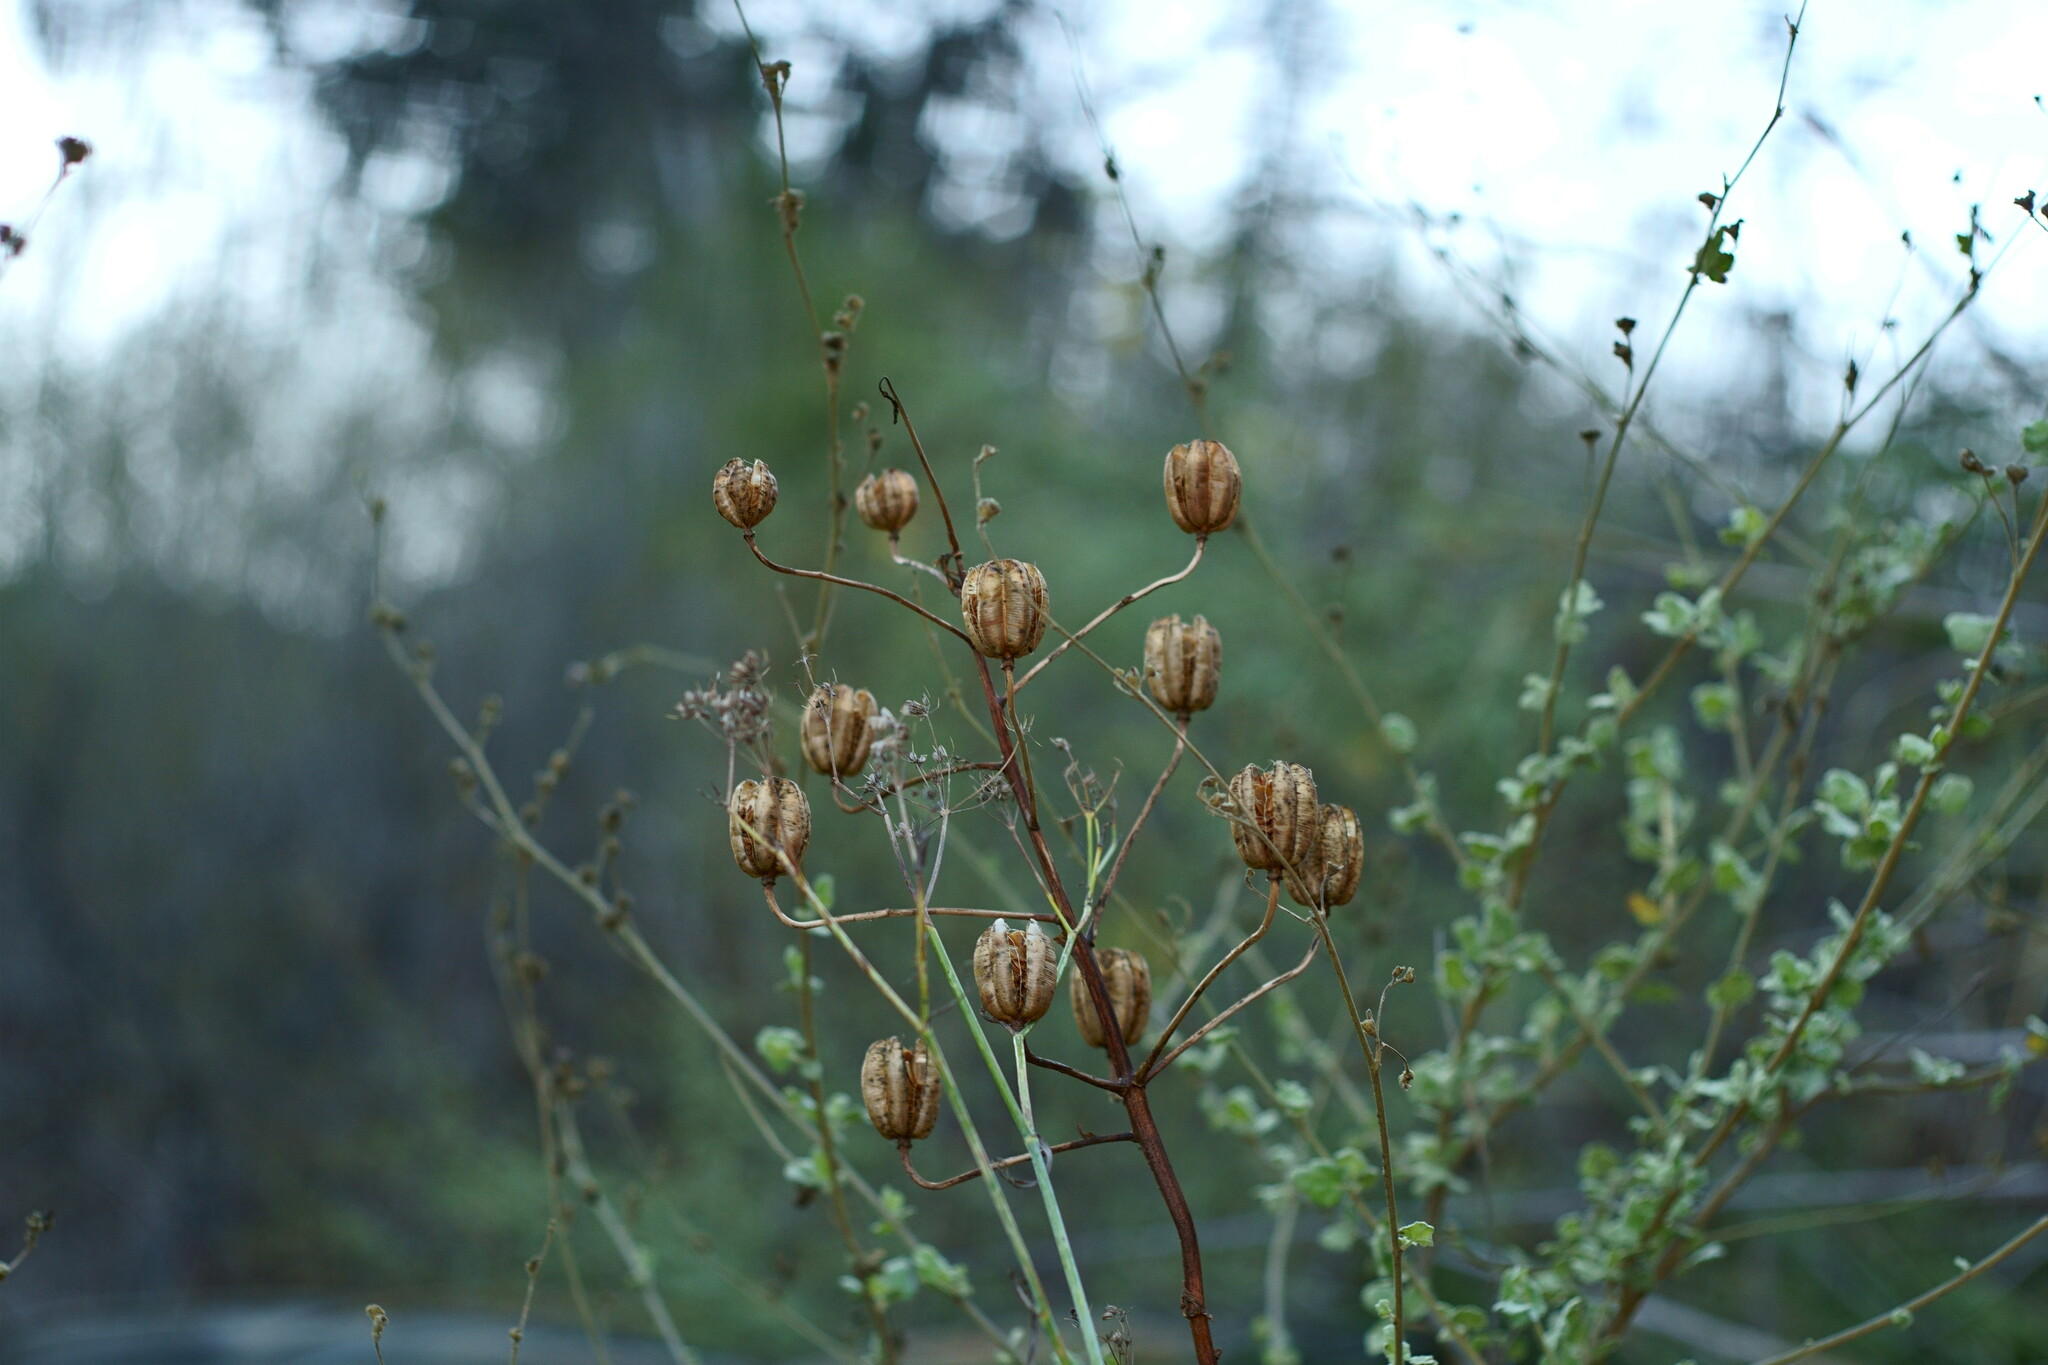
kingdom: Plantae
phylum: Tracheophyta
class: Liliopsida
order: Liliales
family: Liliaceae
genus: Lilium
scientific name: Lilium humboldtii
